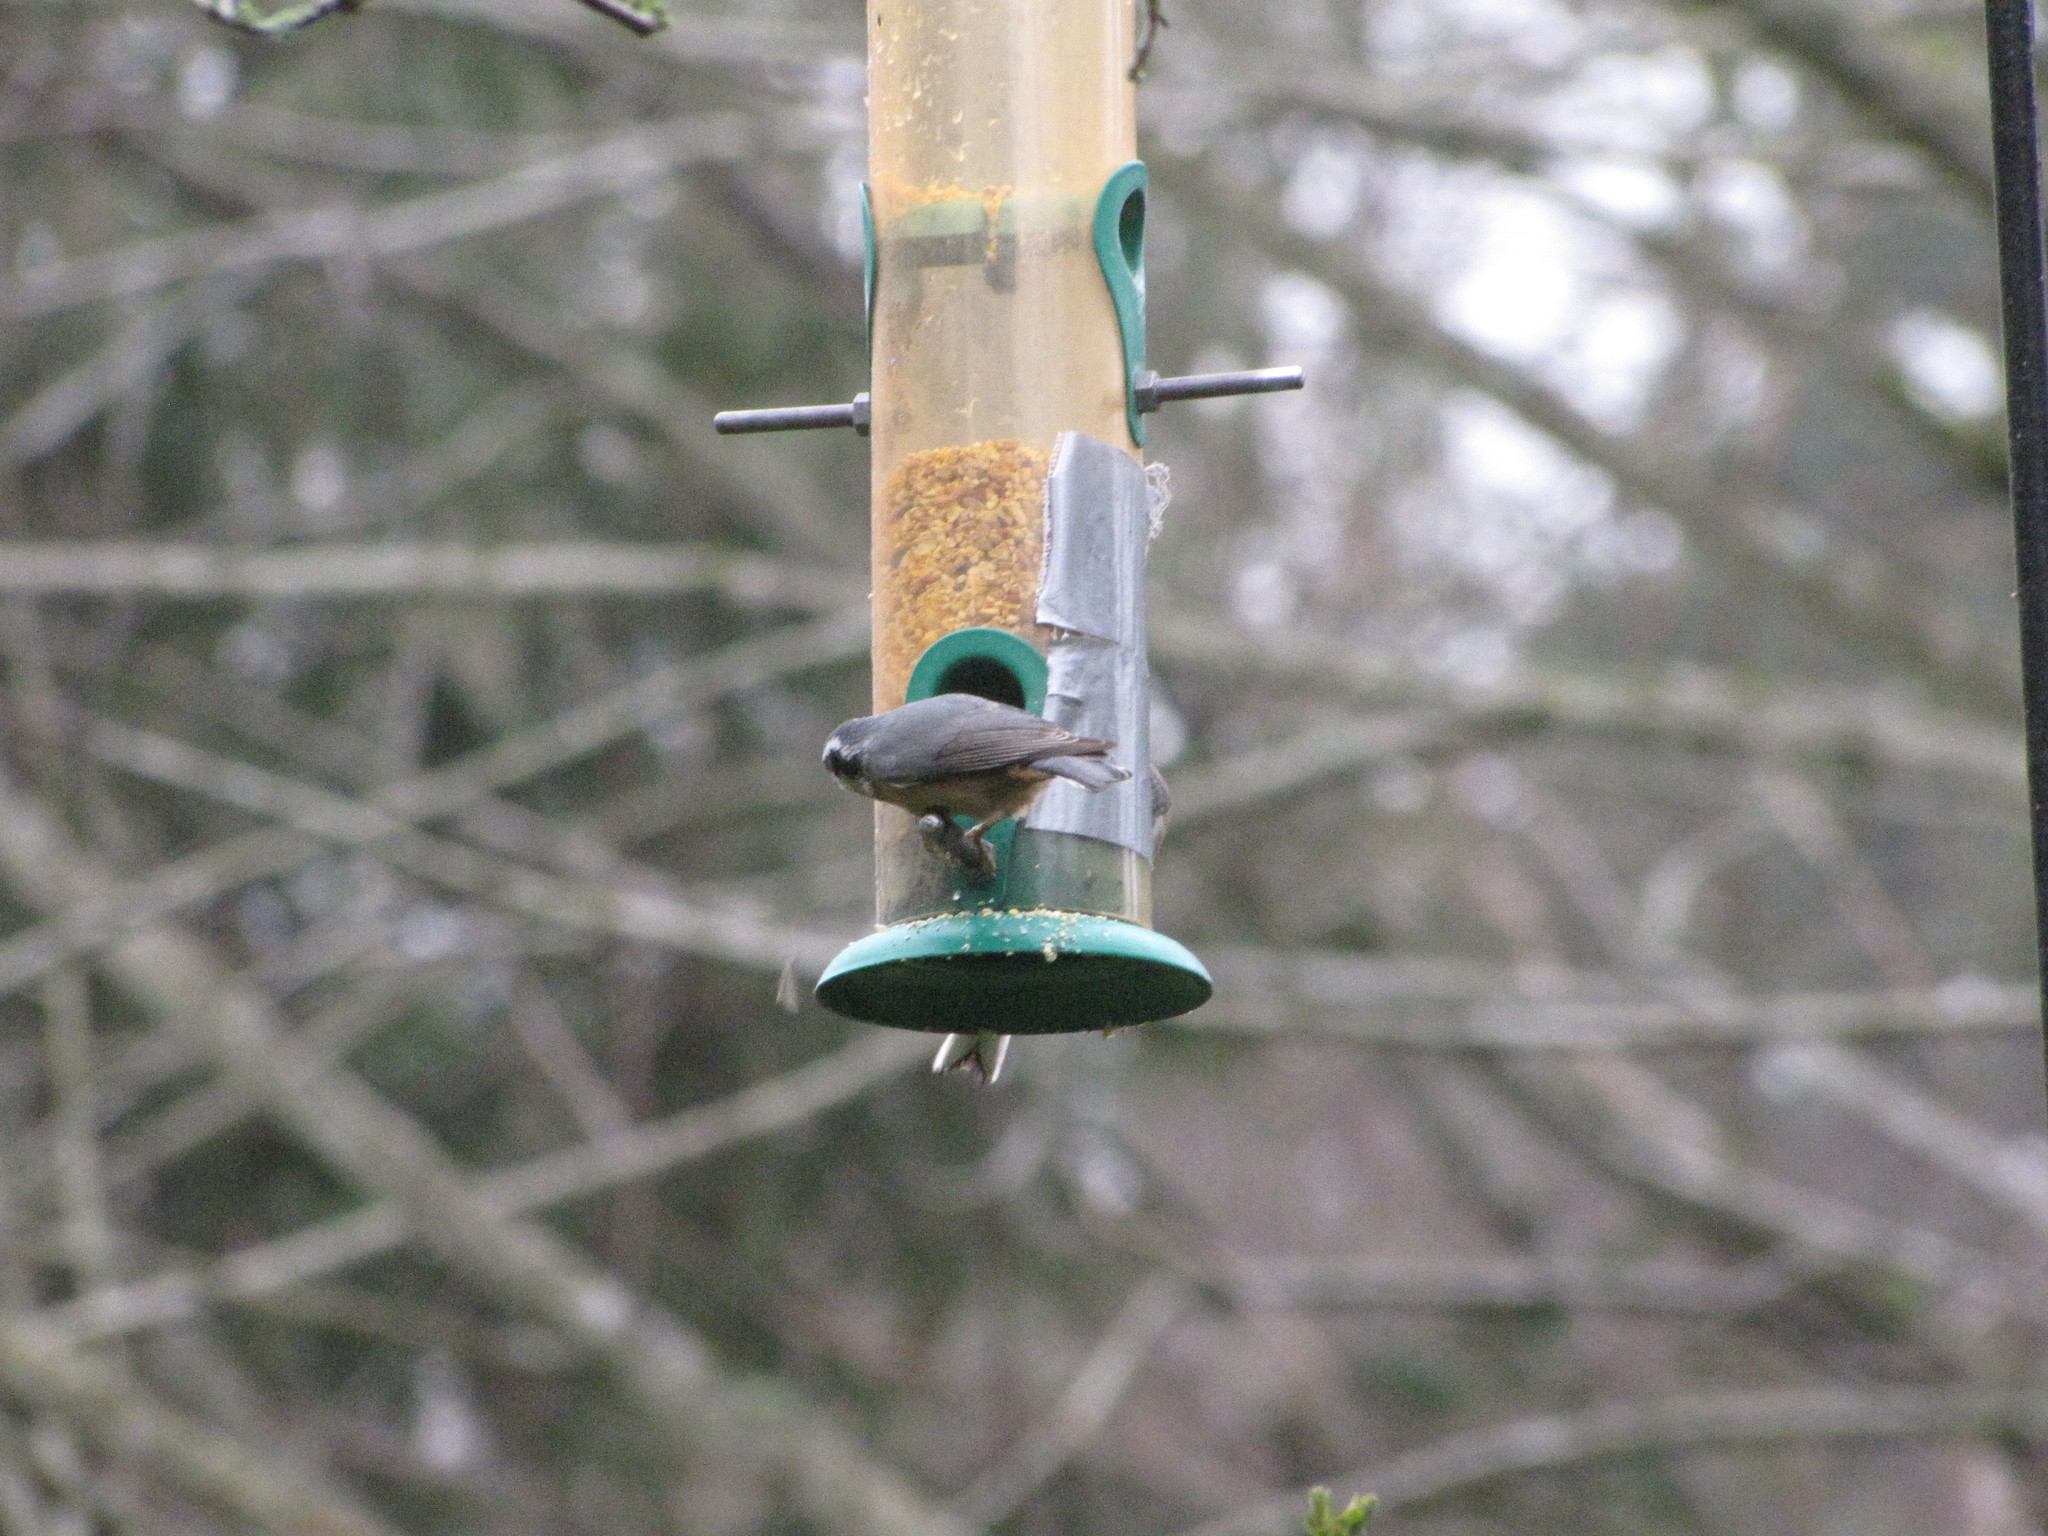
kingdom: Animalia
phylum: Chordata
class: Aves
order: Passeriformes
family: Sittidae
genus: Sitta
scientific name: Sitta canadensis
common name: Red-breasted nuthatch
